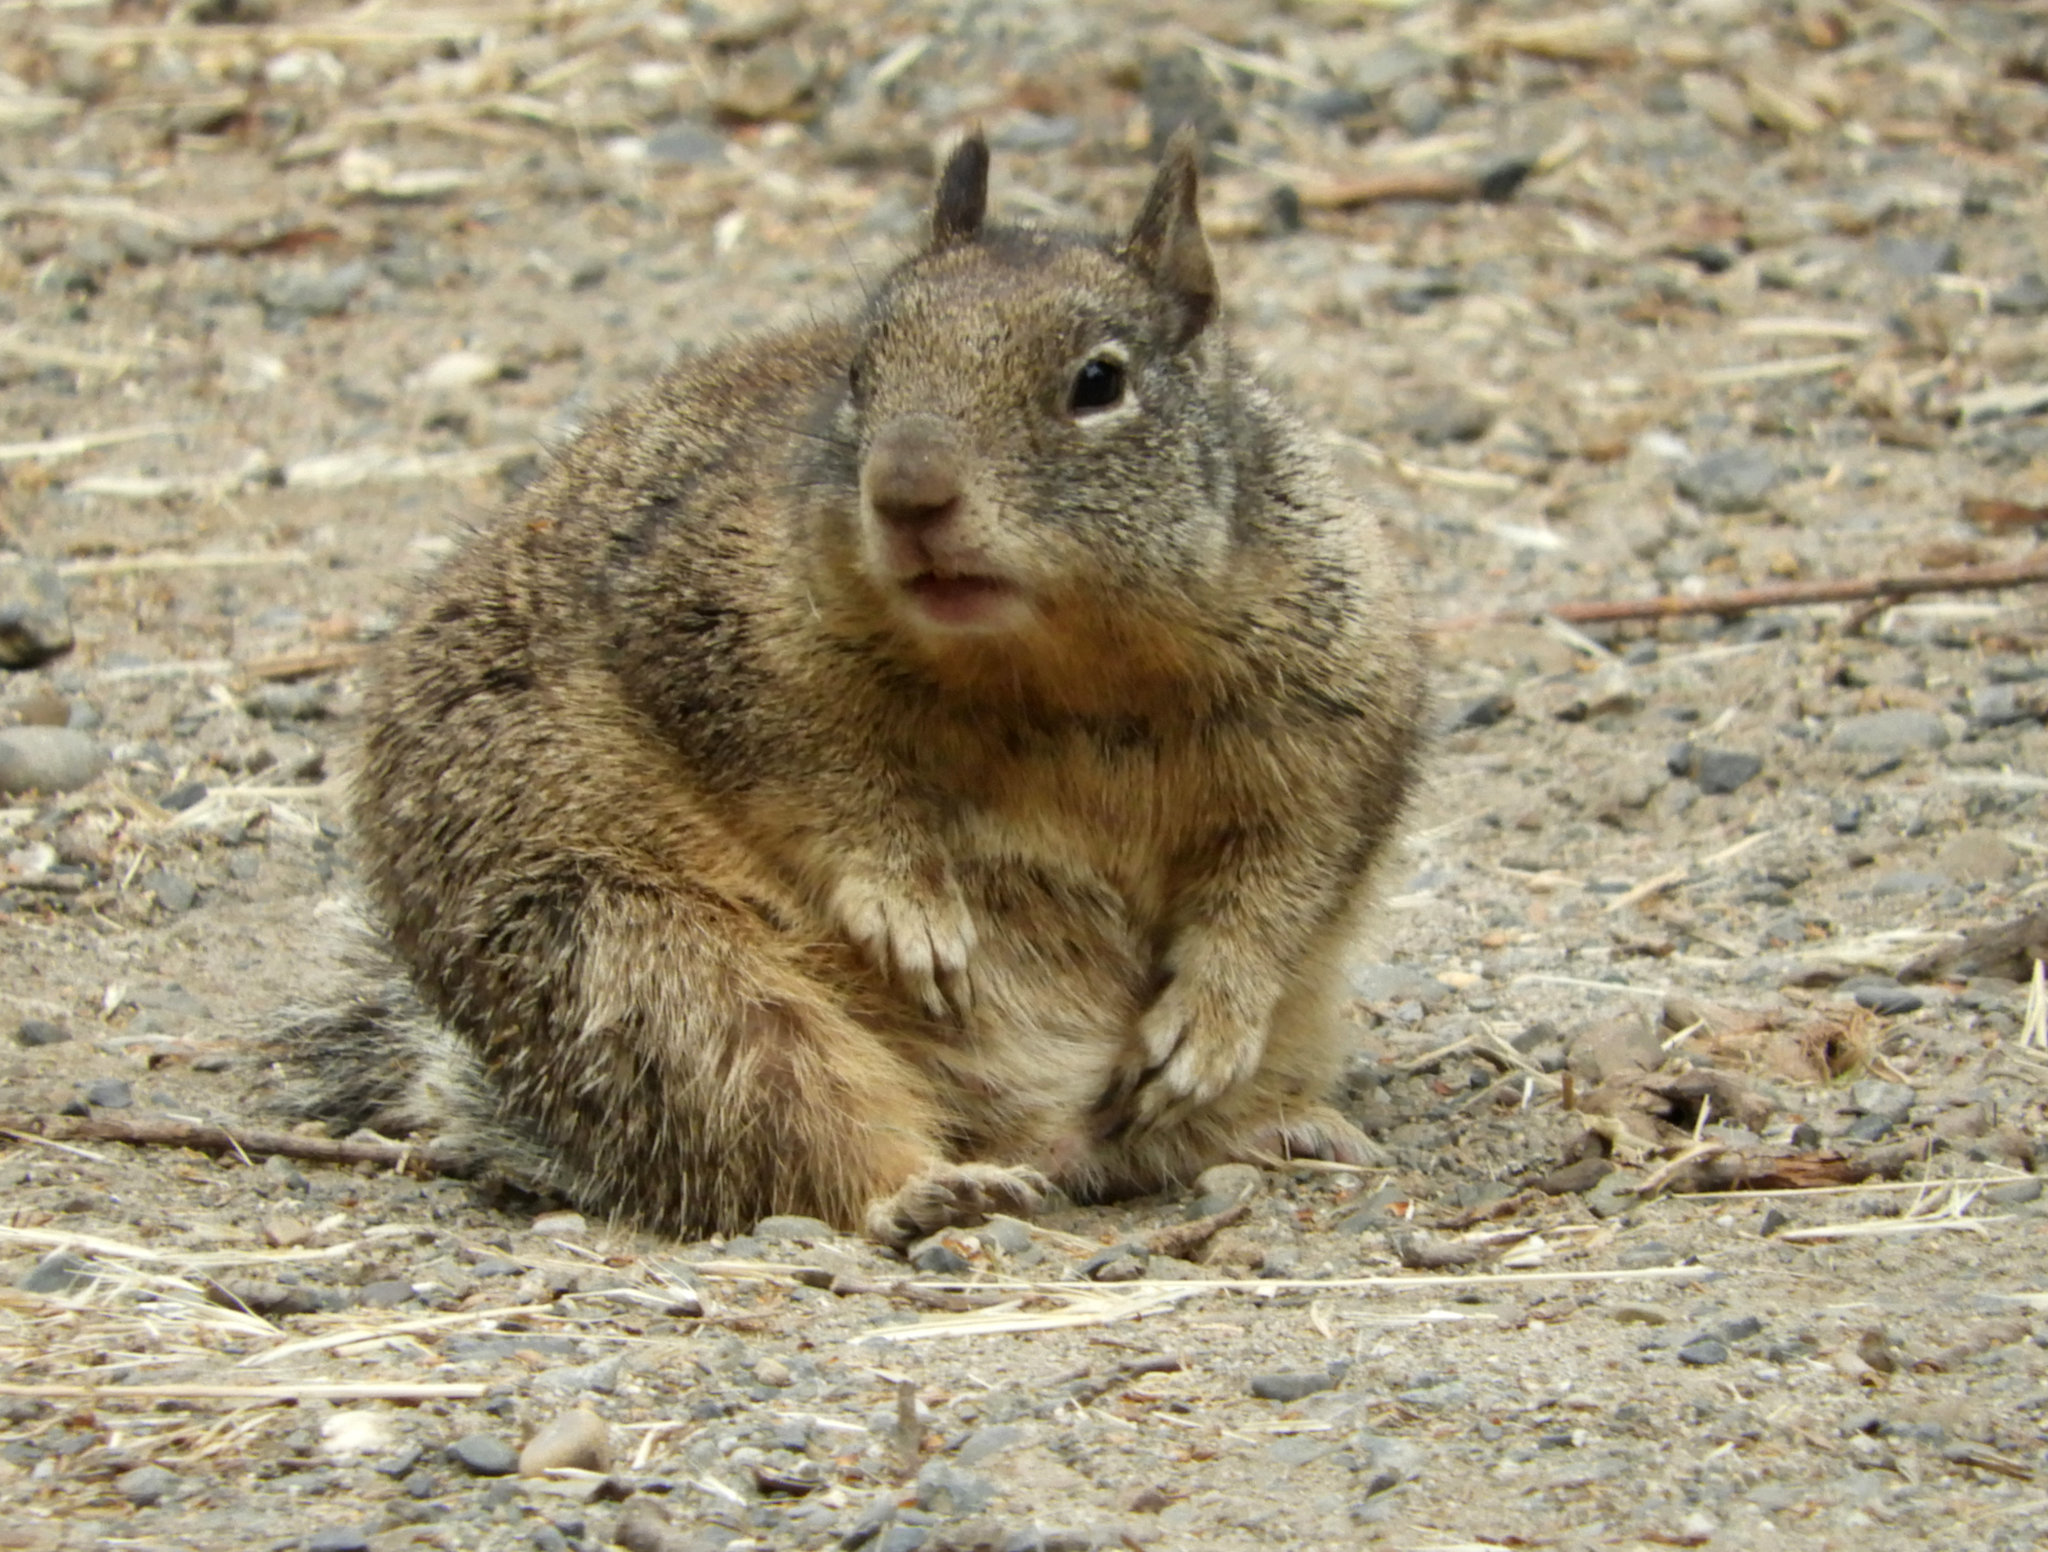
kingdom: Animalia
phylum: Chordata
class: Mammalia
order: Rodentia
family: Sciuridae
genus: Otospermophilus
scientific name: Otospermophilus beecheyi
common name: California ground squirrel
